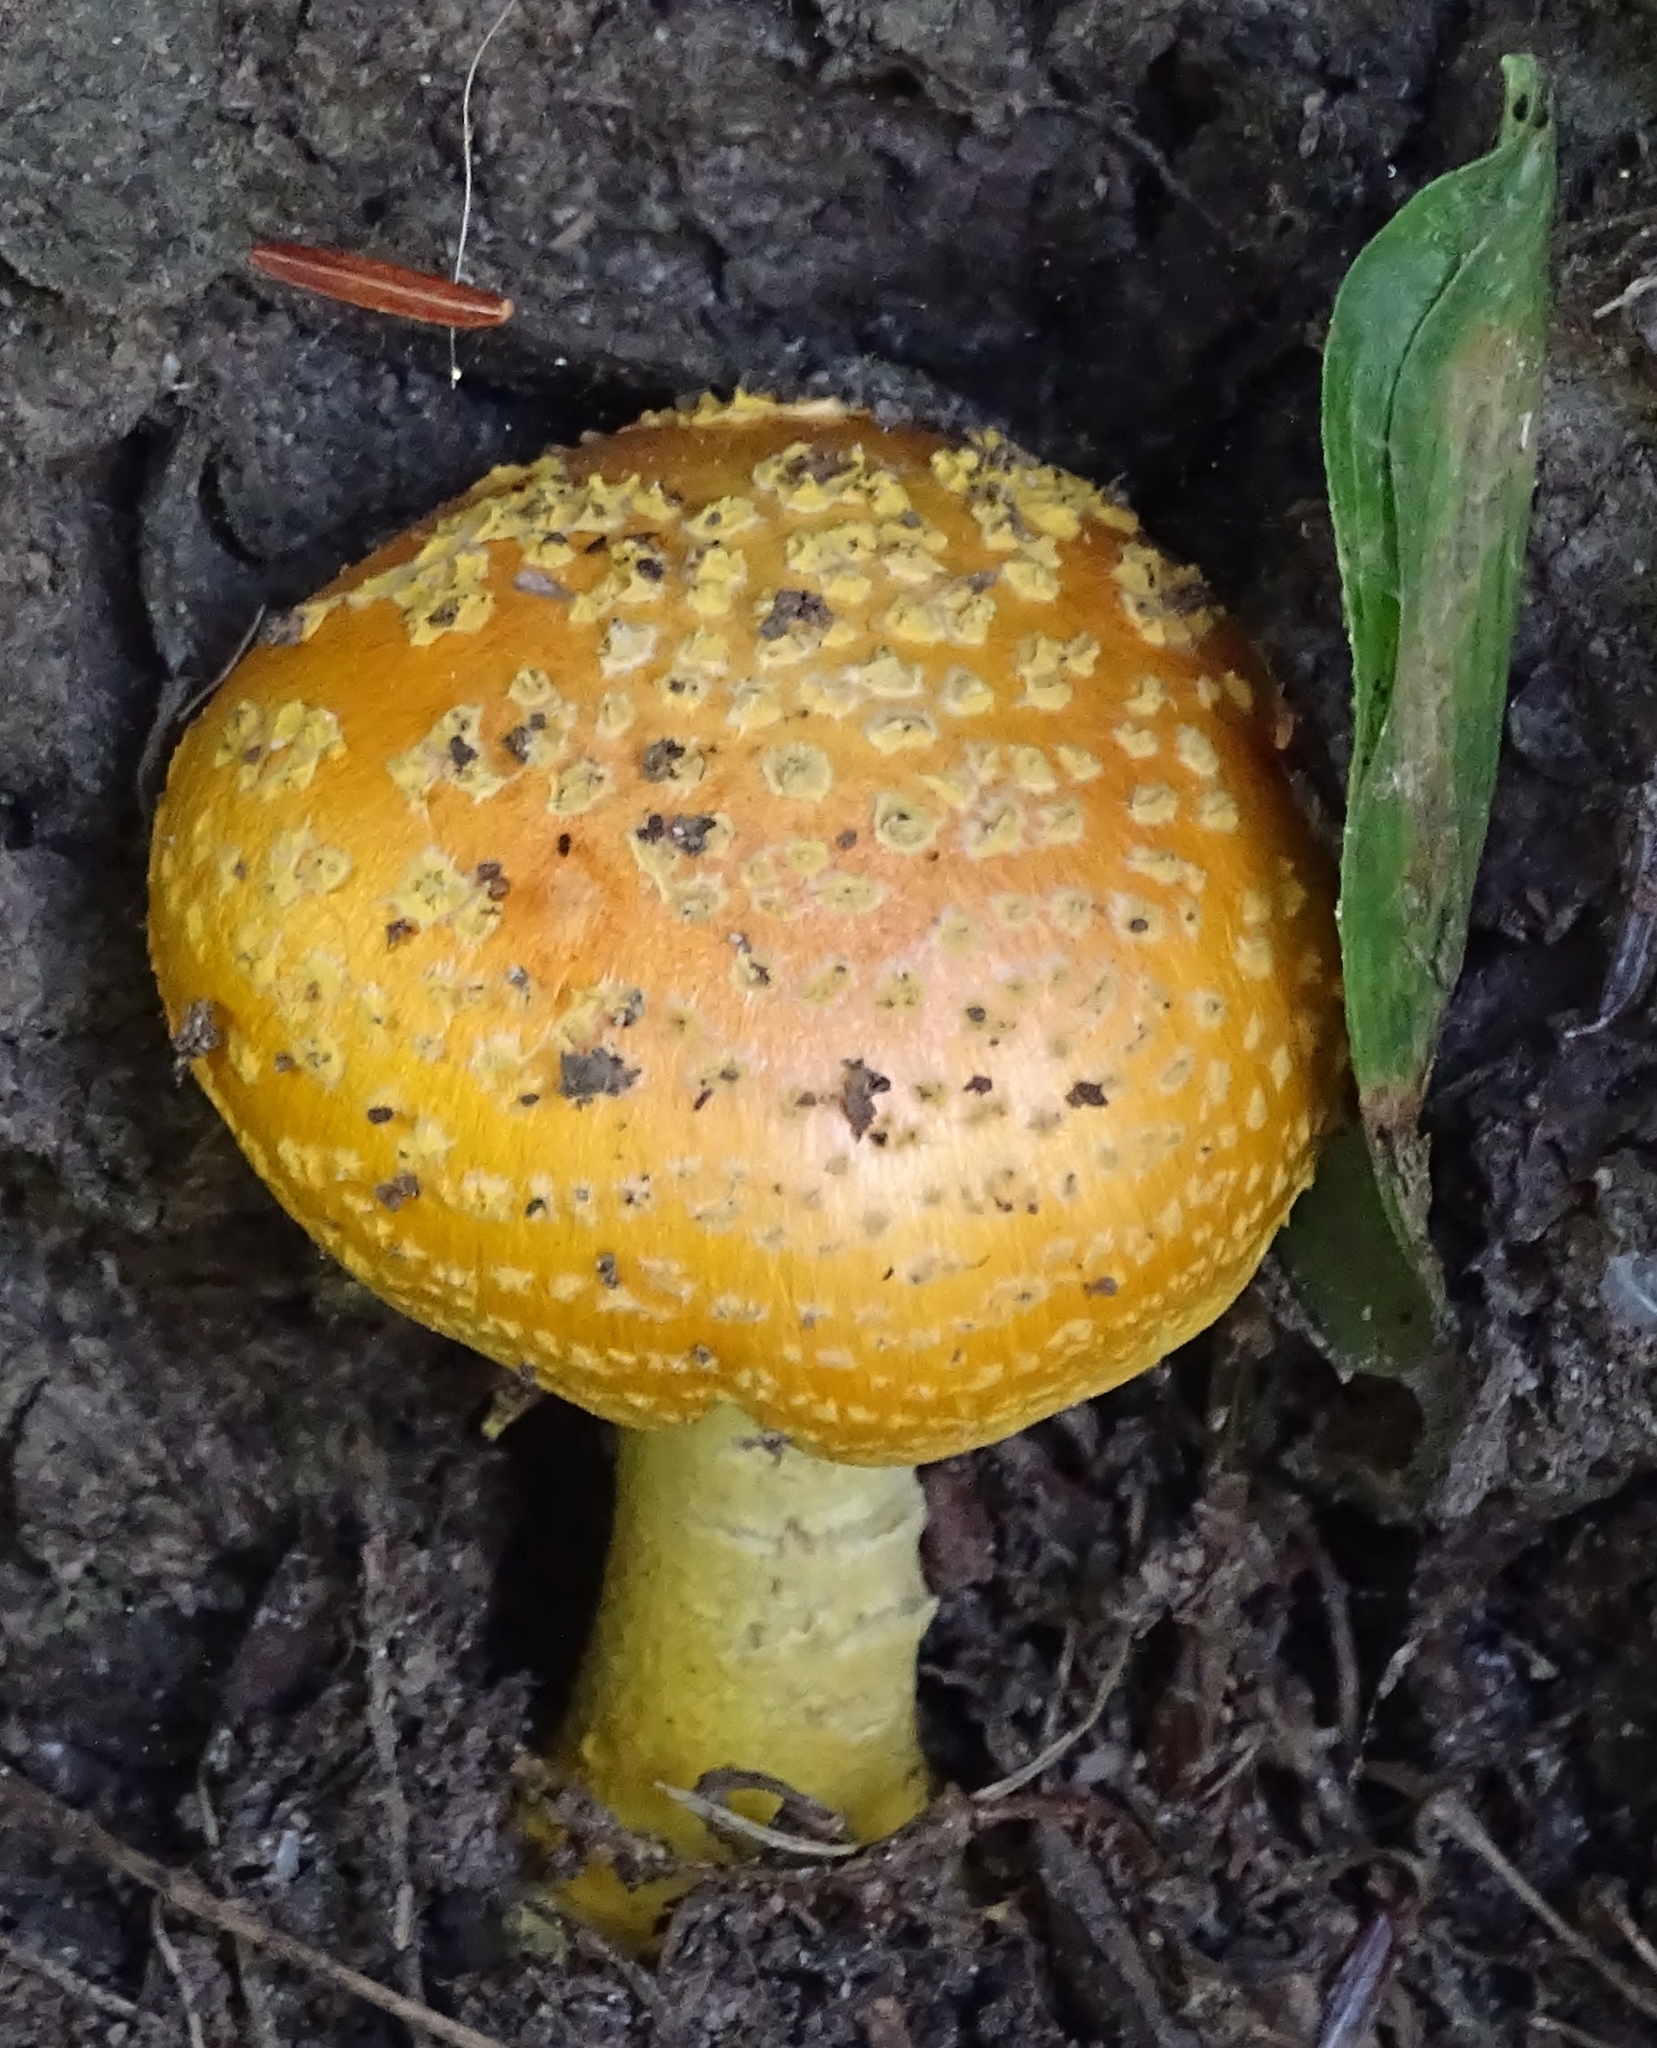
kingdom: Fungi
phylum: Basidiomycota
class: Agaricomycetes
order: Agaricales
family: Amanitaceae
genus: Amanita
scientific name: Amanita muscaria
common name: Fly agaric
